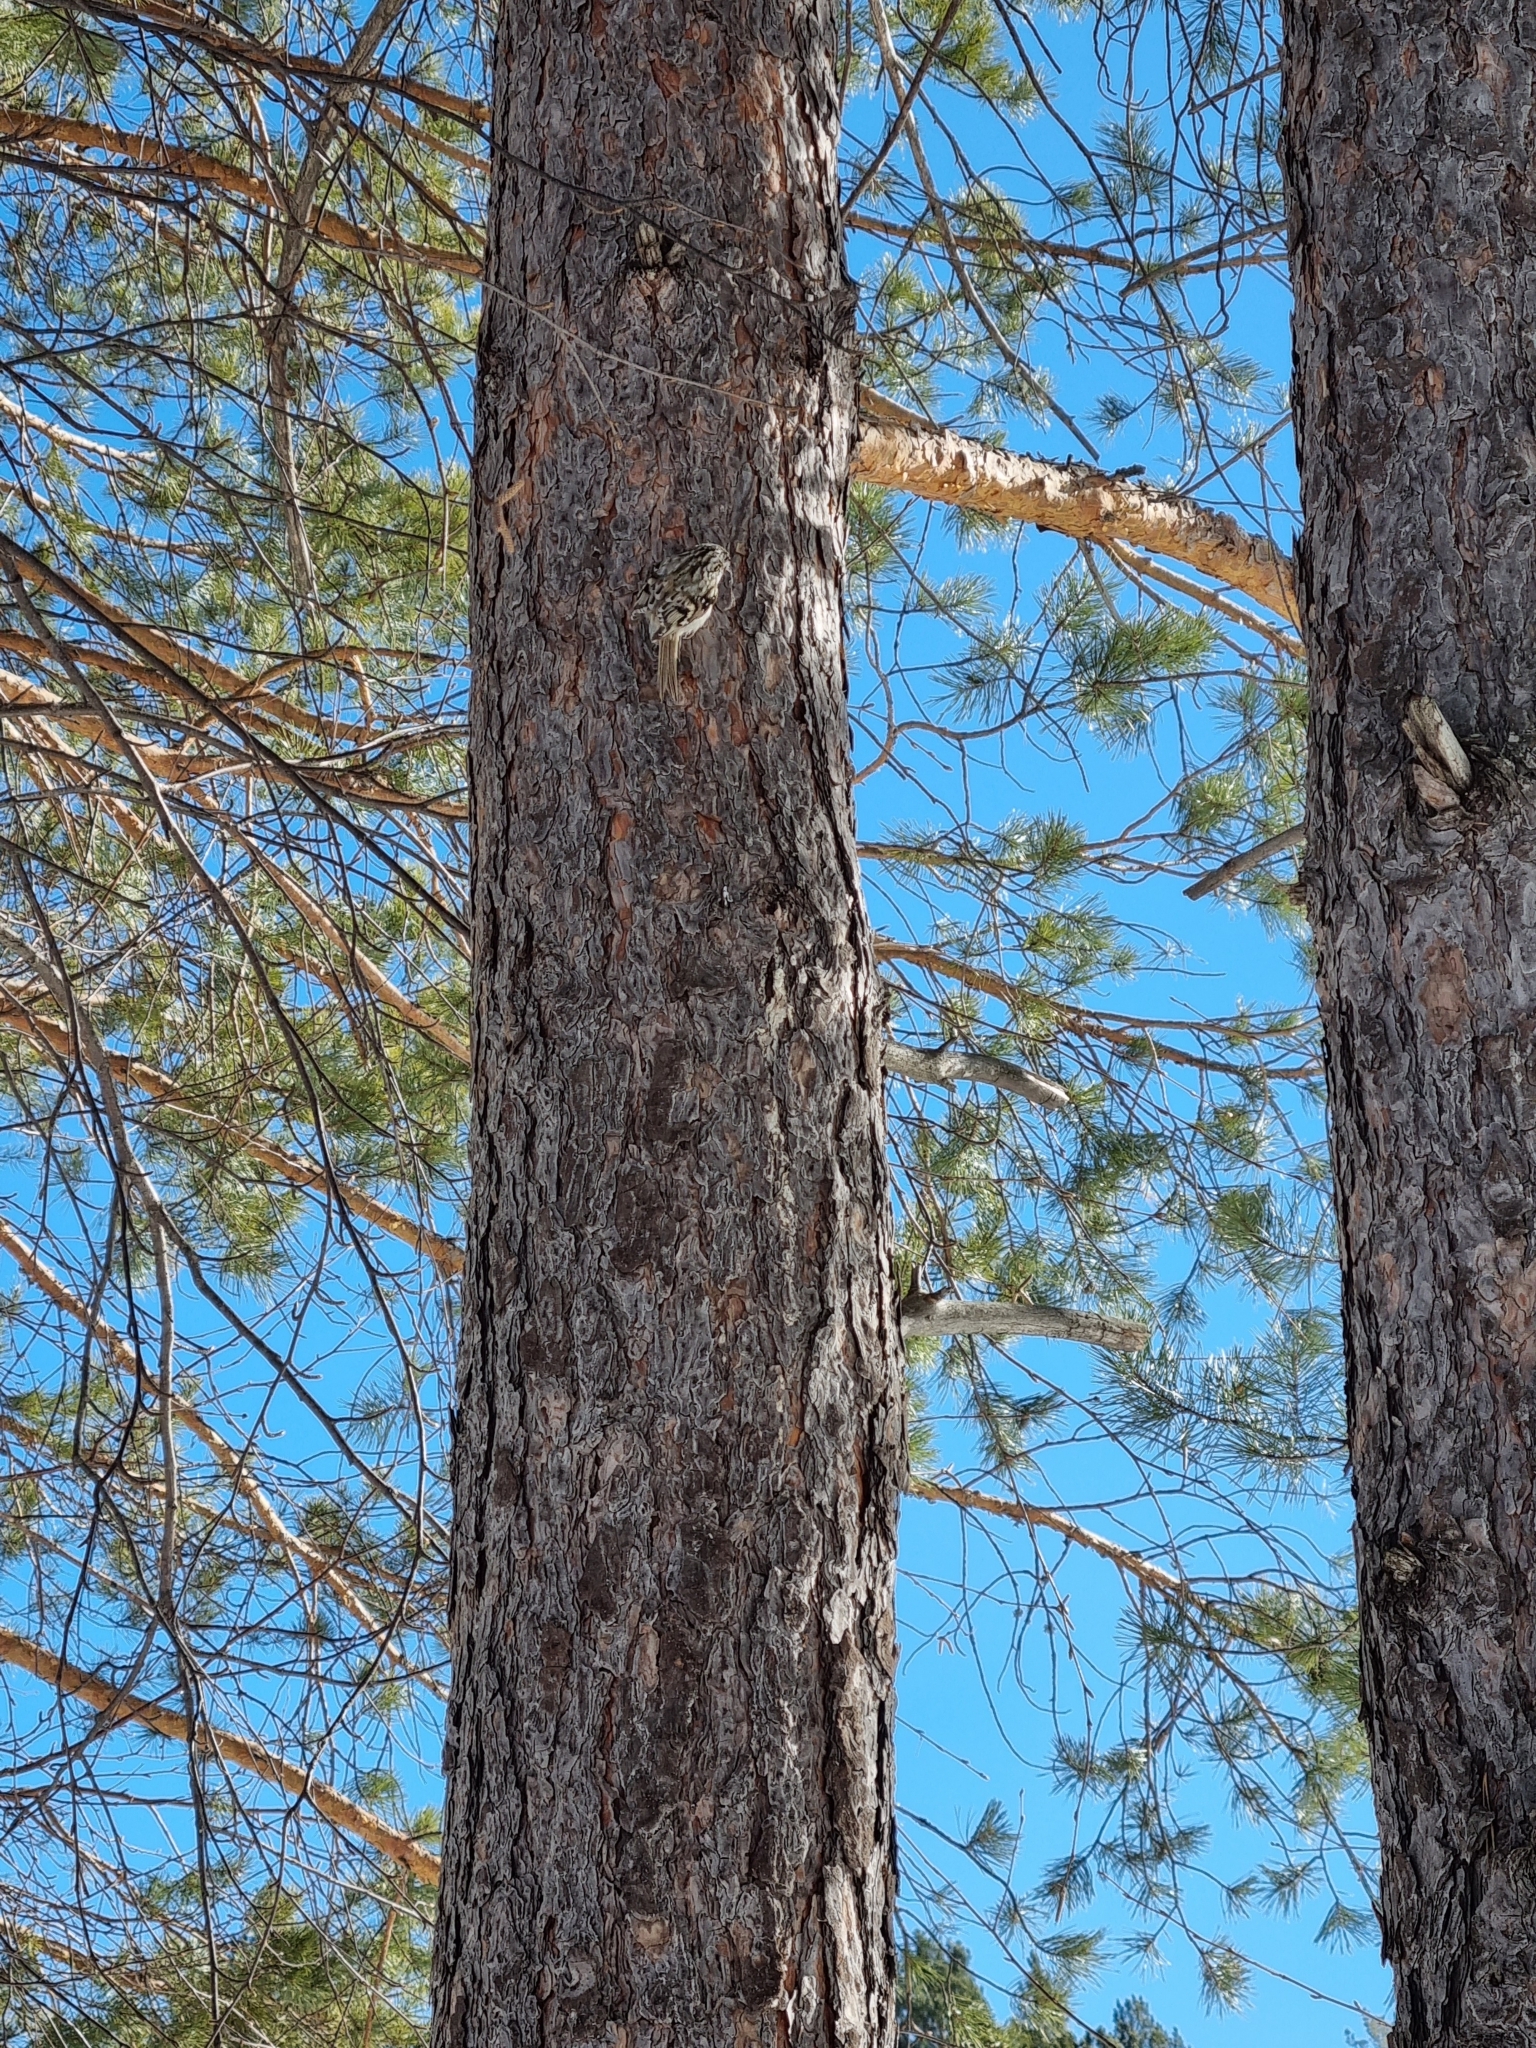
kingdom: Animalia
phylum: Chordata
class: Aves
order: Passeriformes
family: Certhiidae
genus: Certhia
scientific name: Certhia familiaris
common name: Eurasian treecreeper
